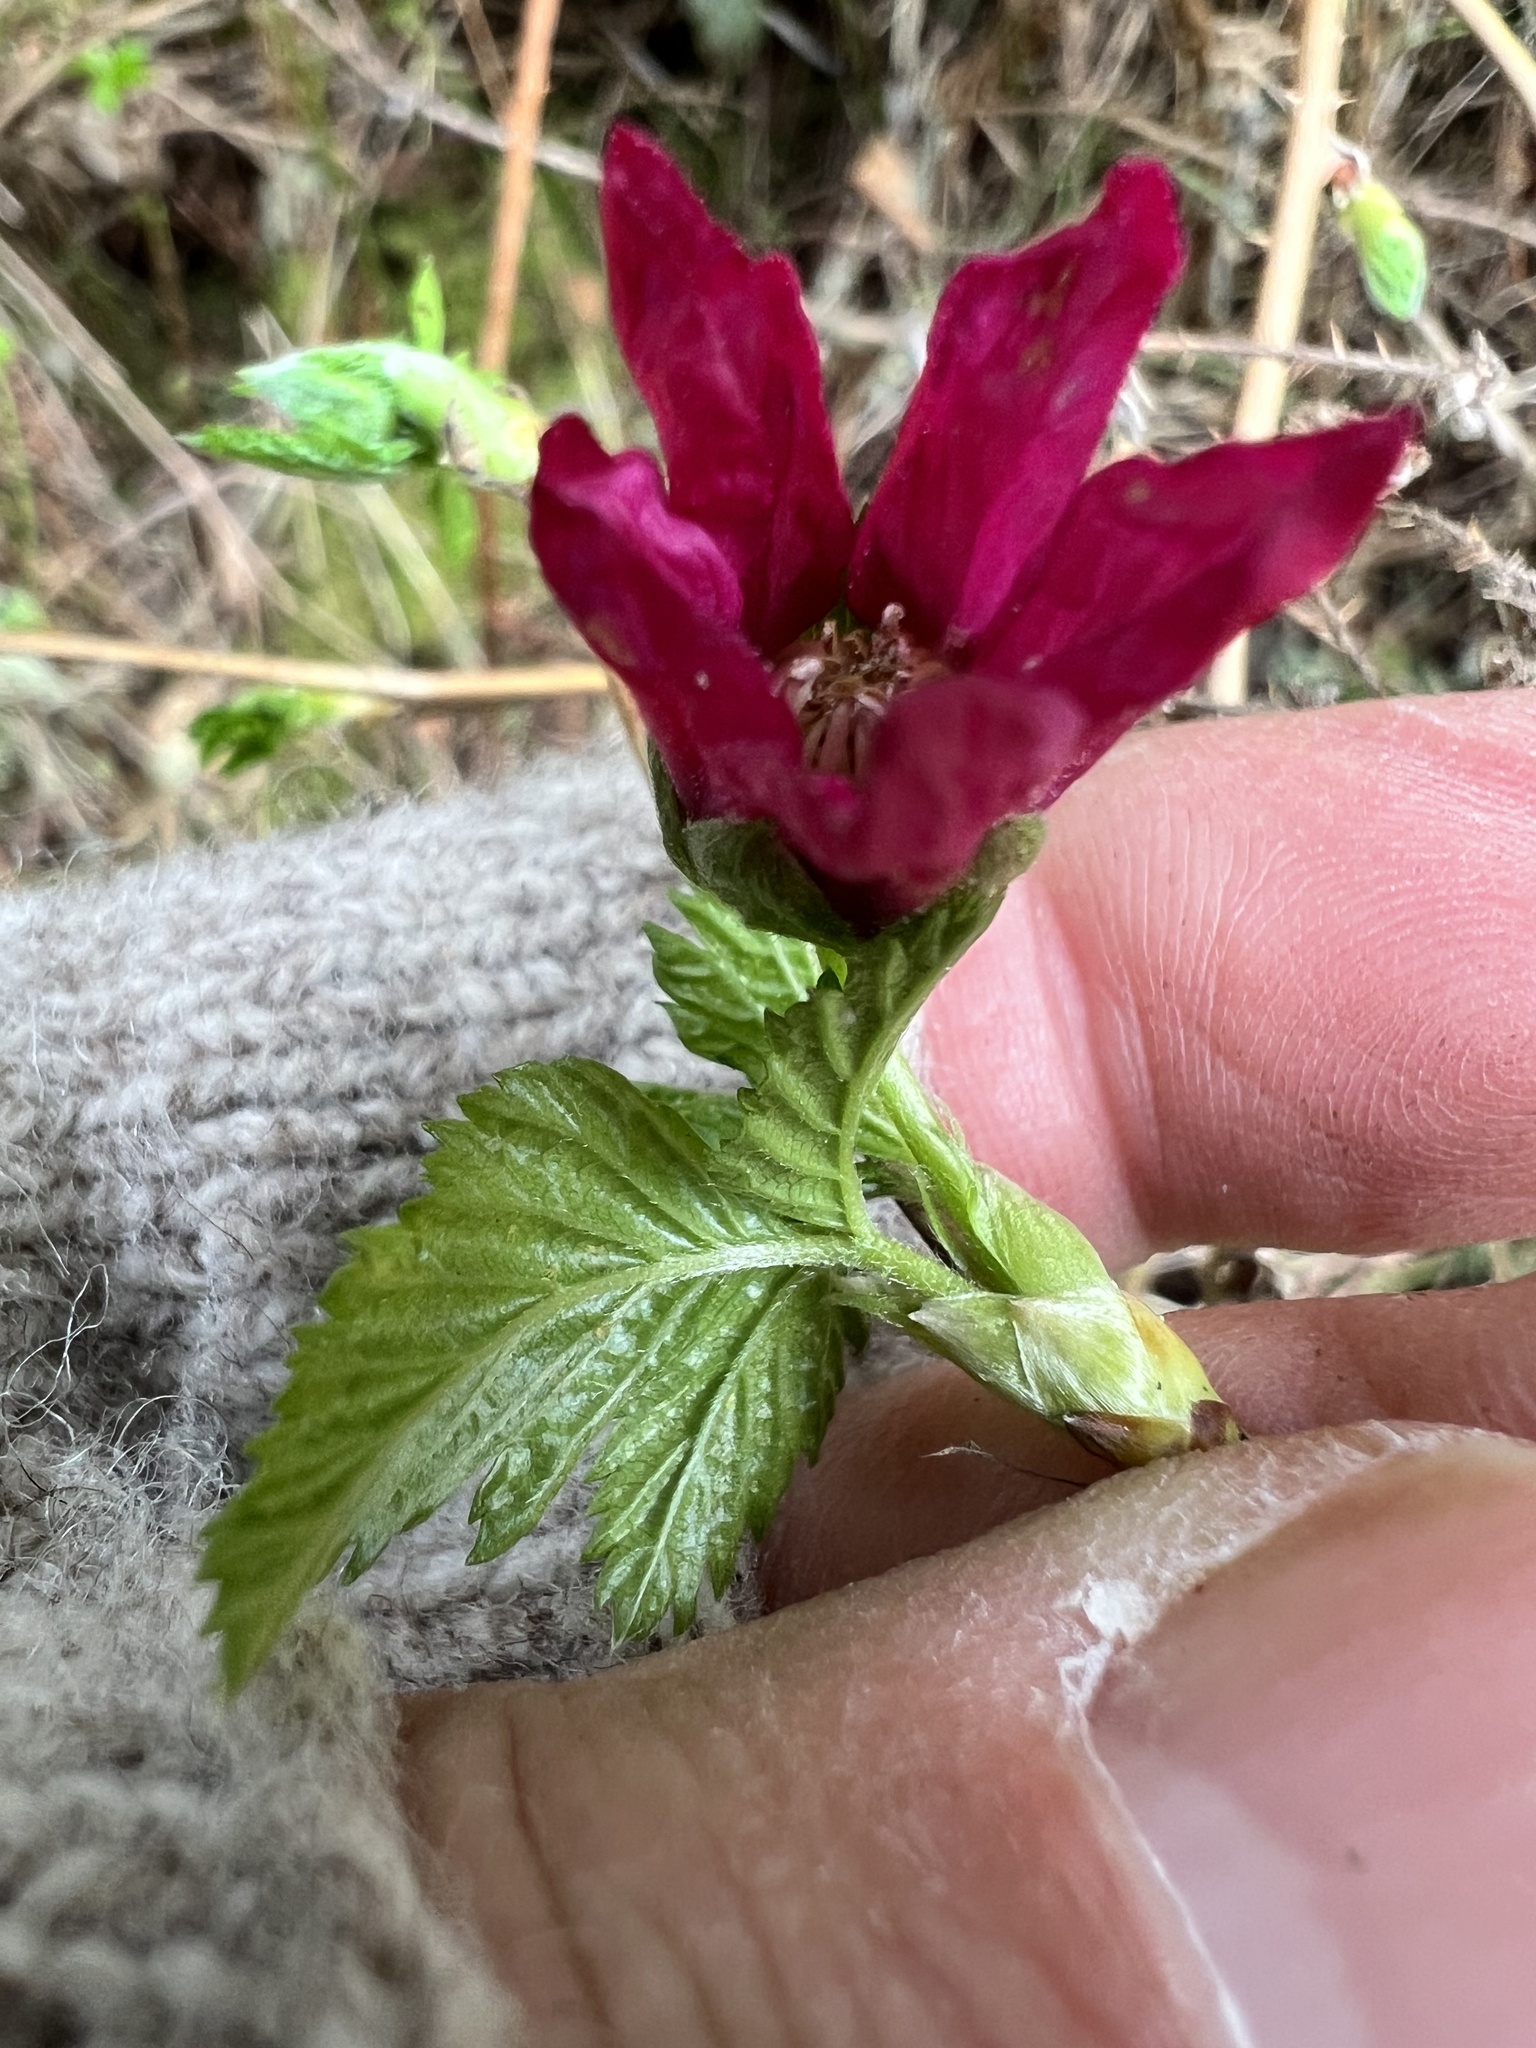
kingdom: Plantae
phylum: Tracheophyta
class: Magnoliopsida
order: Rosales
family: Rosaceae
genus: Rubus
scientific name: Rubus spectabilis
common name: Salmonberry
